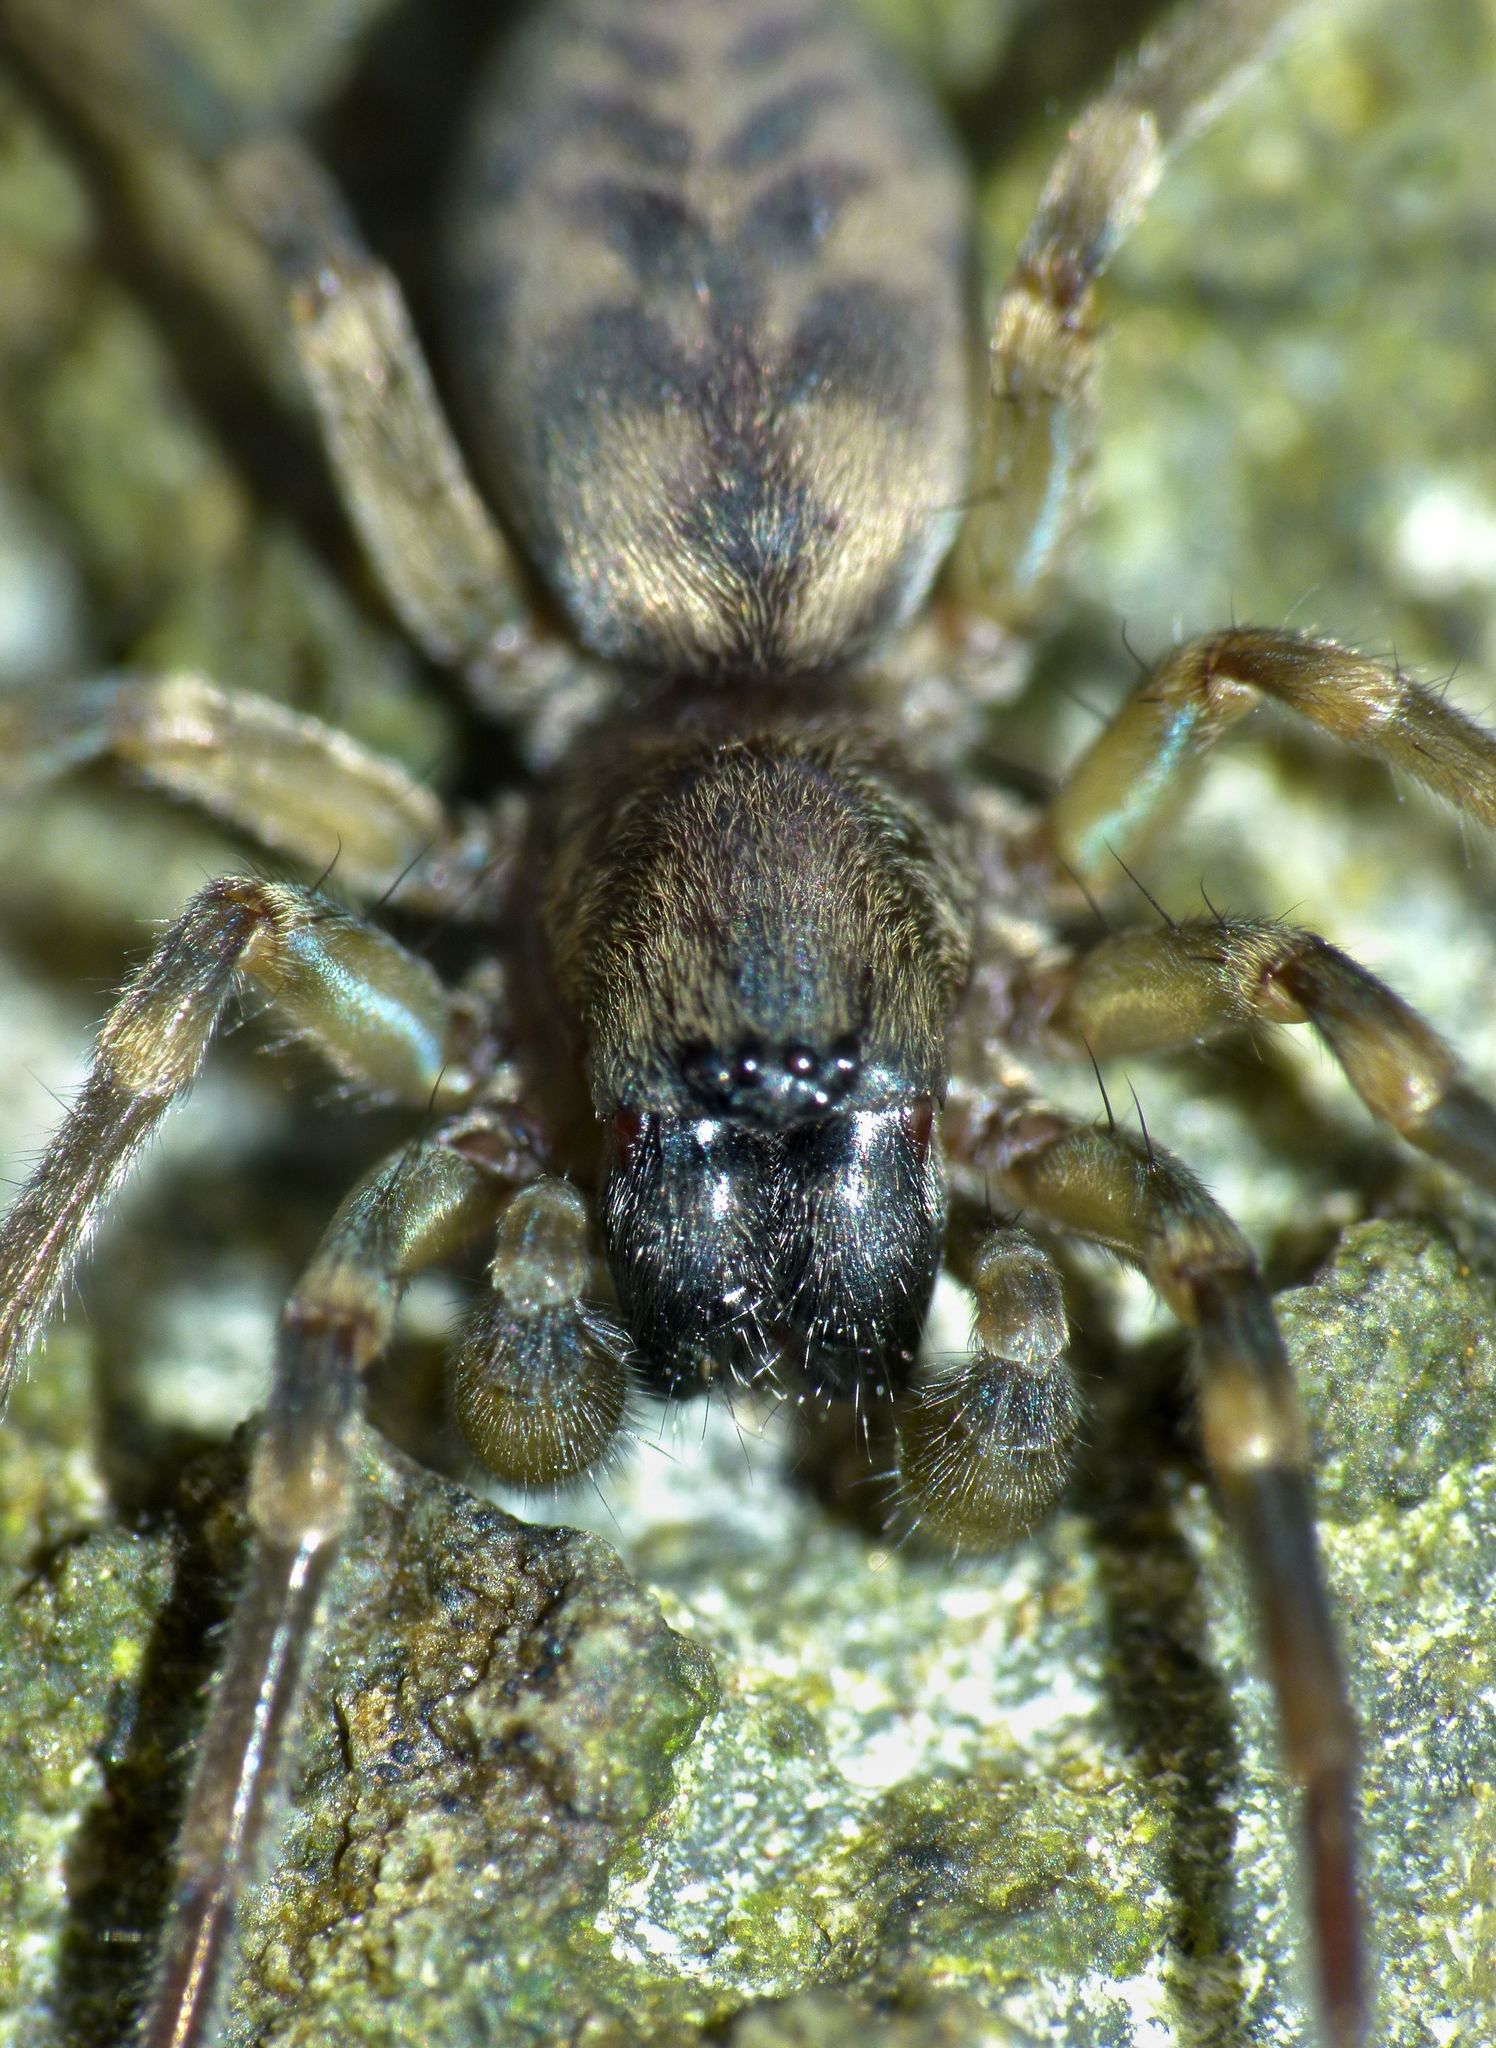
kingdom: Animalia
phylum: Arthropoda
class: Arachnida
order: Araneae
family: Anyphaenidae
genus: Amaurobioides
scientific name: Amaurobioides maritima
